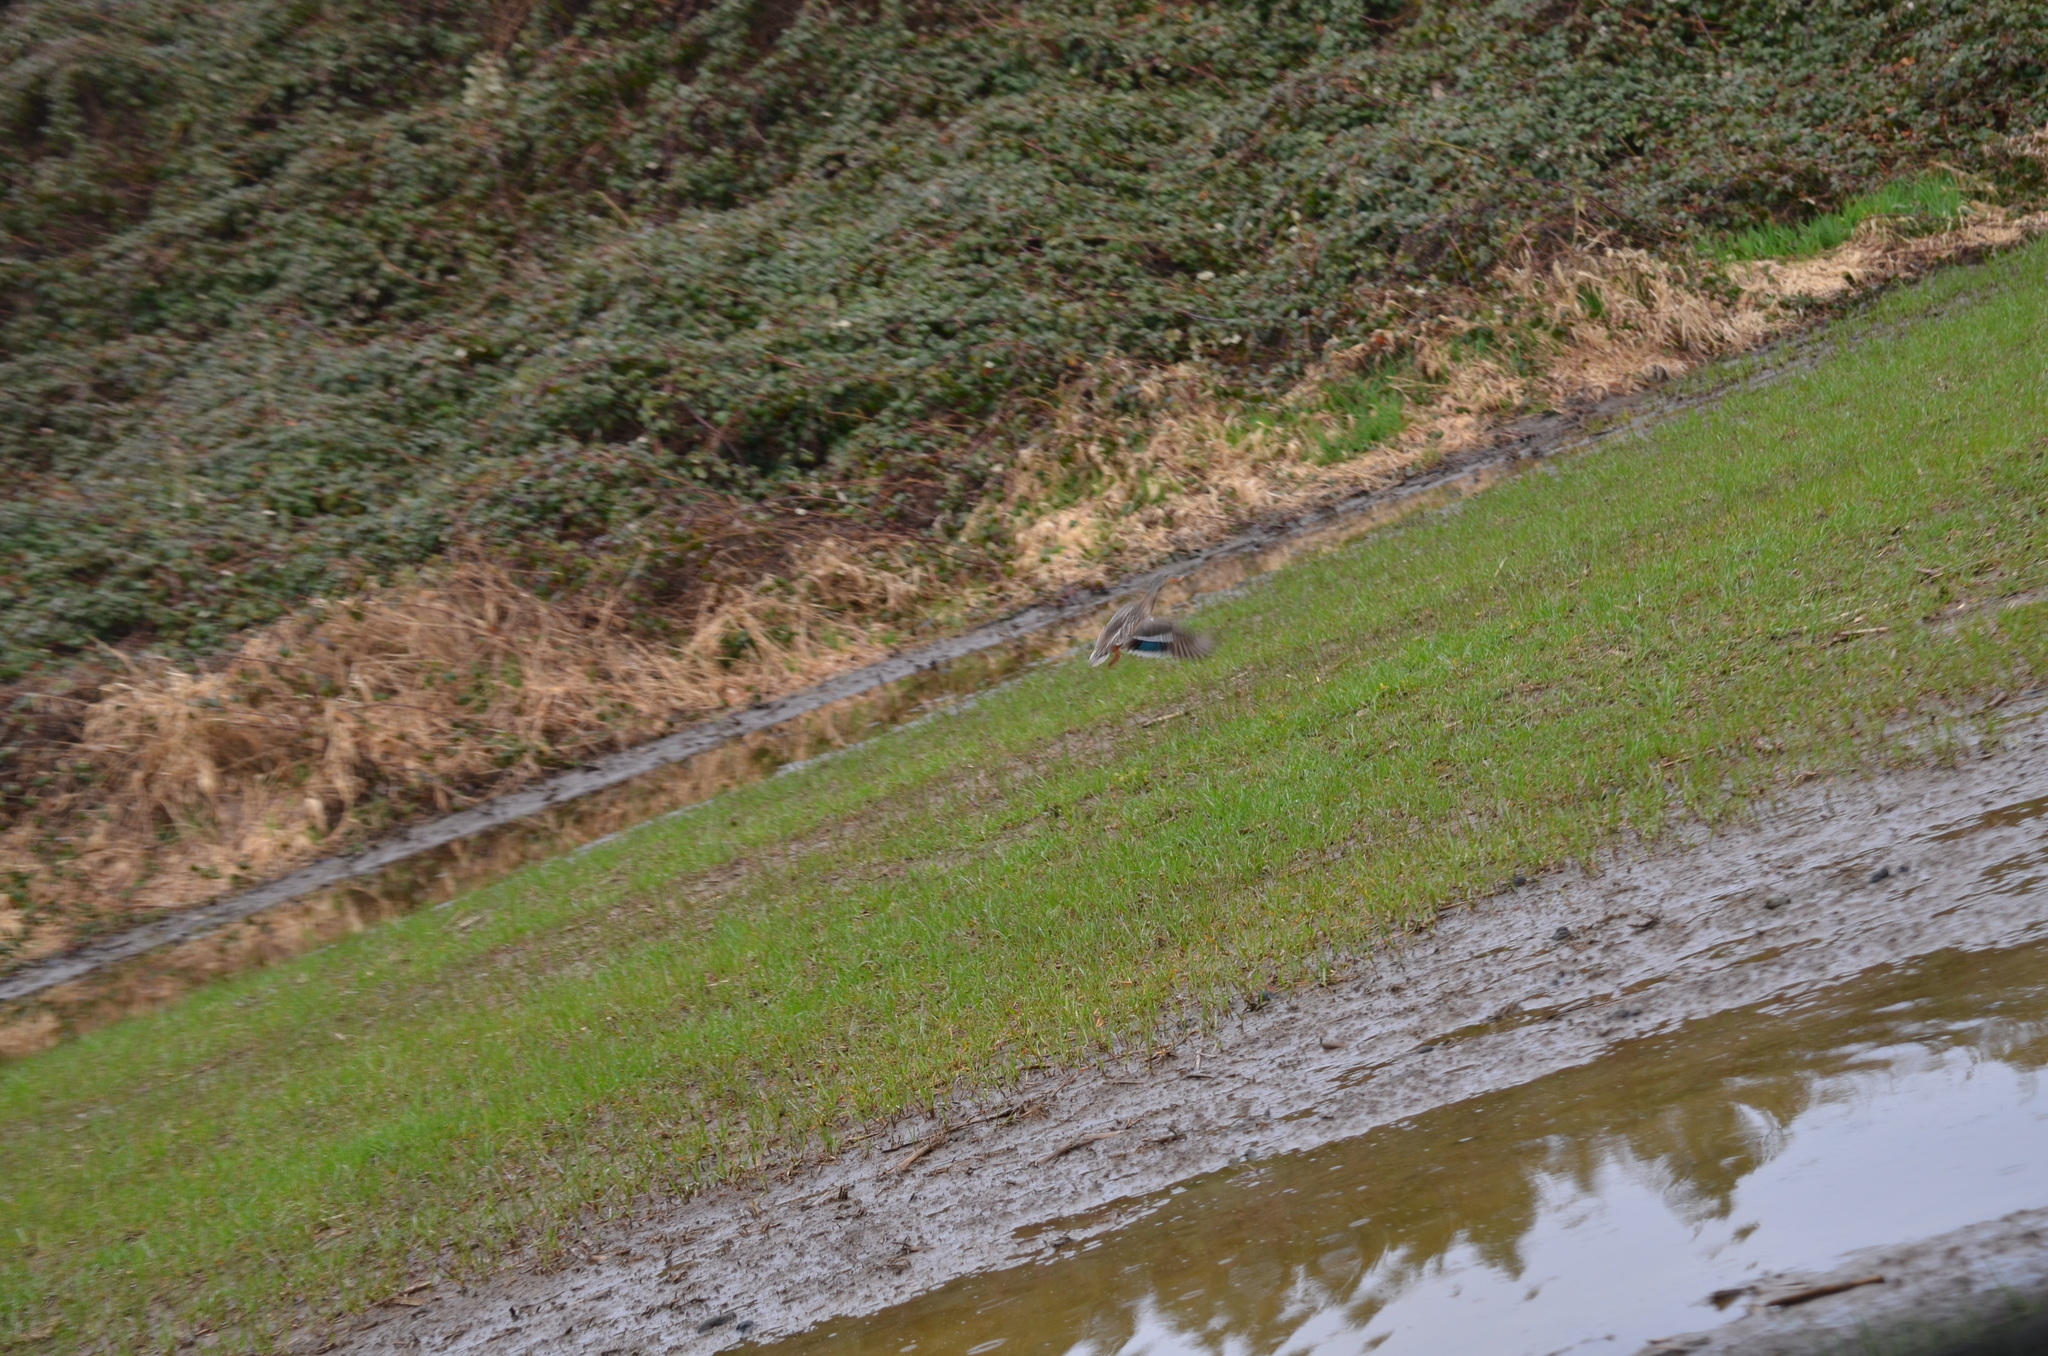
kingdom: Animalia
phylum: Chordata
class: Aves
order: Anseriformes
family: Anatidae
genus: Anas
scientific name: Anas platyrhynchos
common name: Mallard
